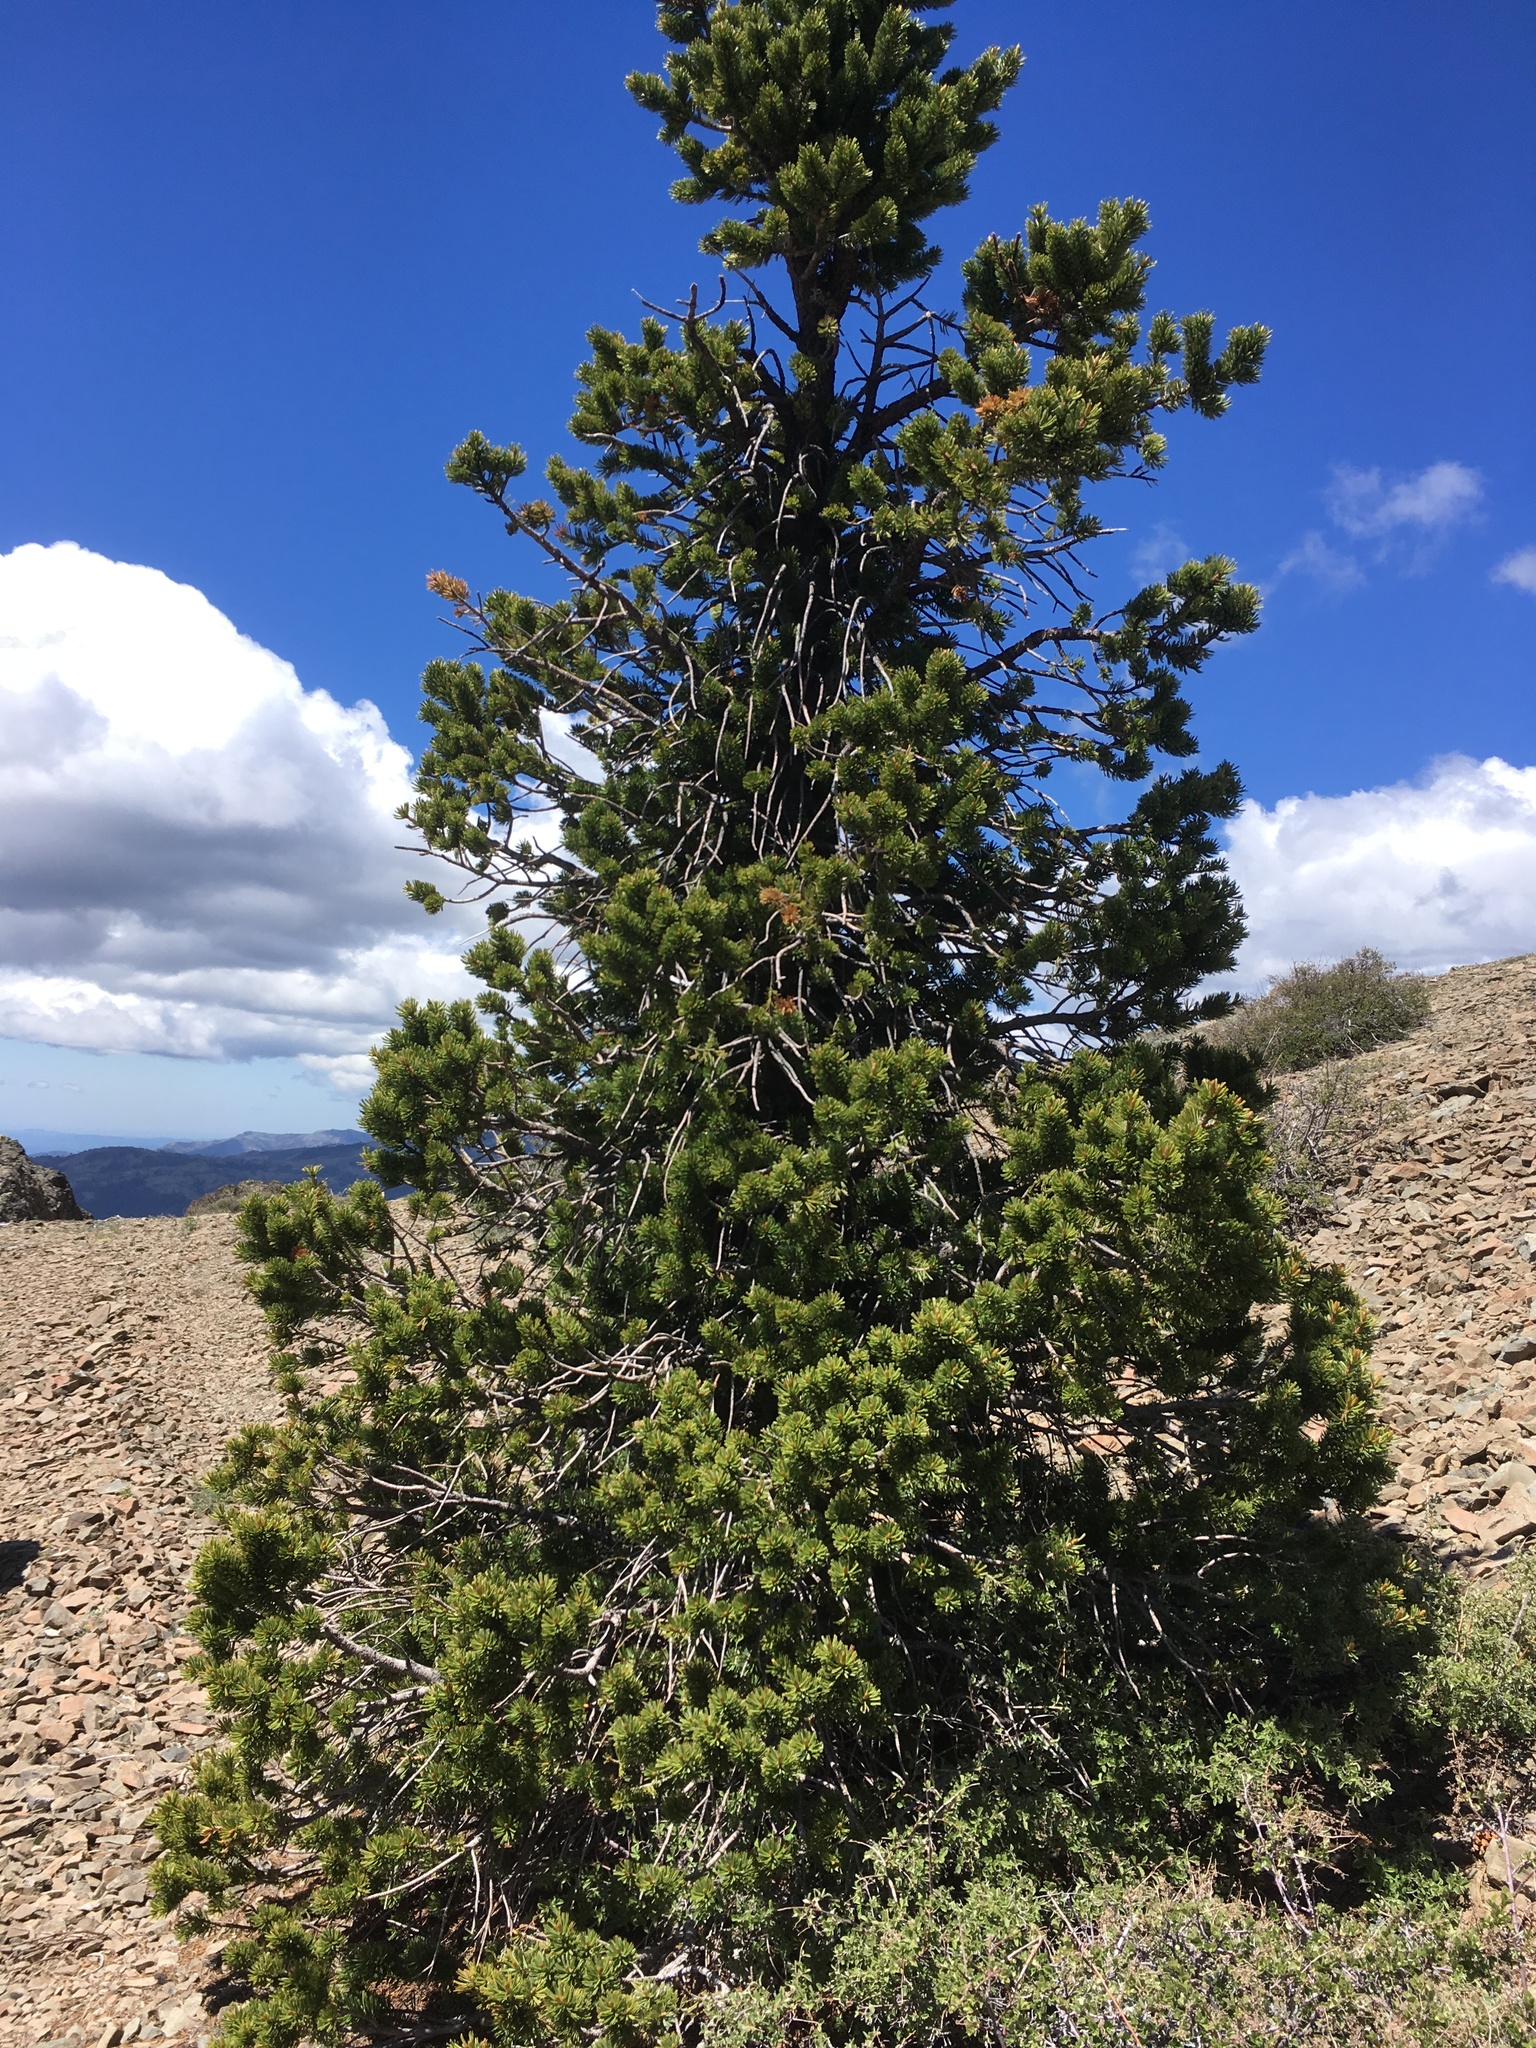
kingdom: Plantae
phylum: Tracheophyta
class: Pinopsida
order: Pinales
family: Pinaceae
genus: Pinus
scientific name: Pinus balfouriana
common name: Foxtail pine
